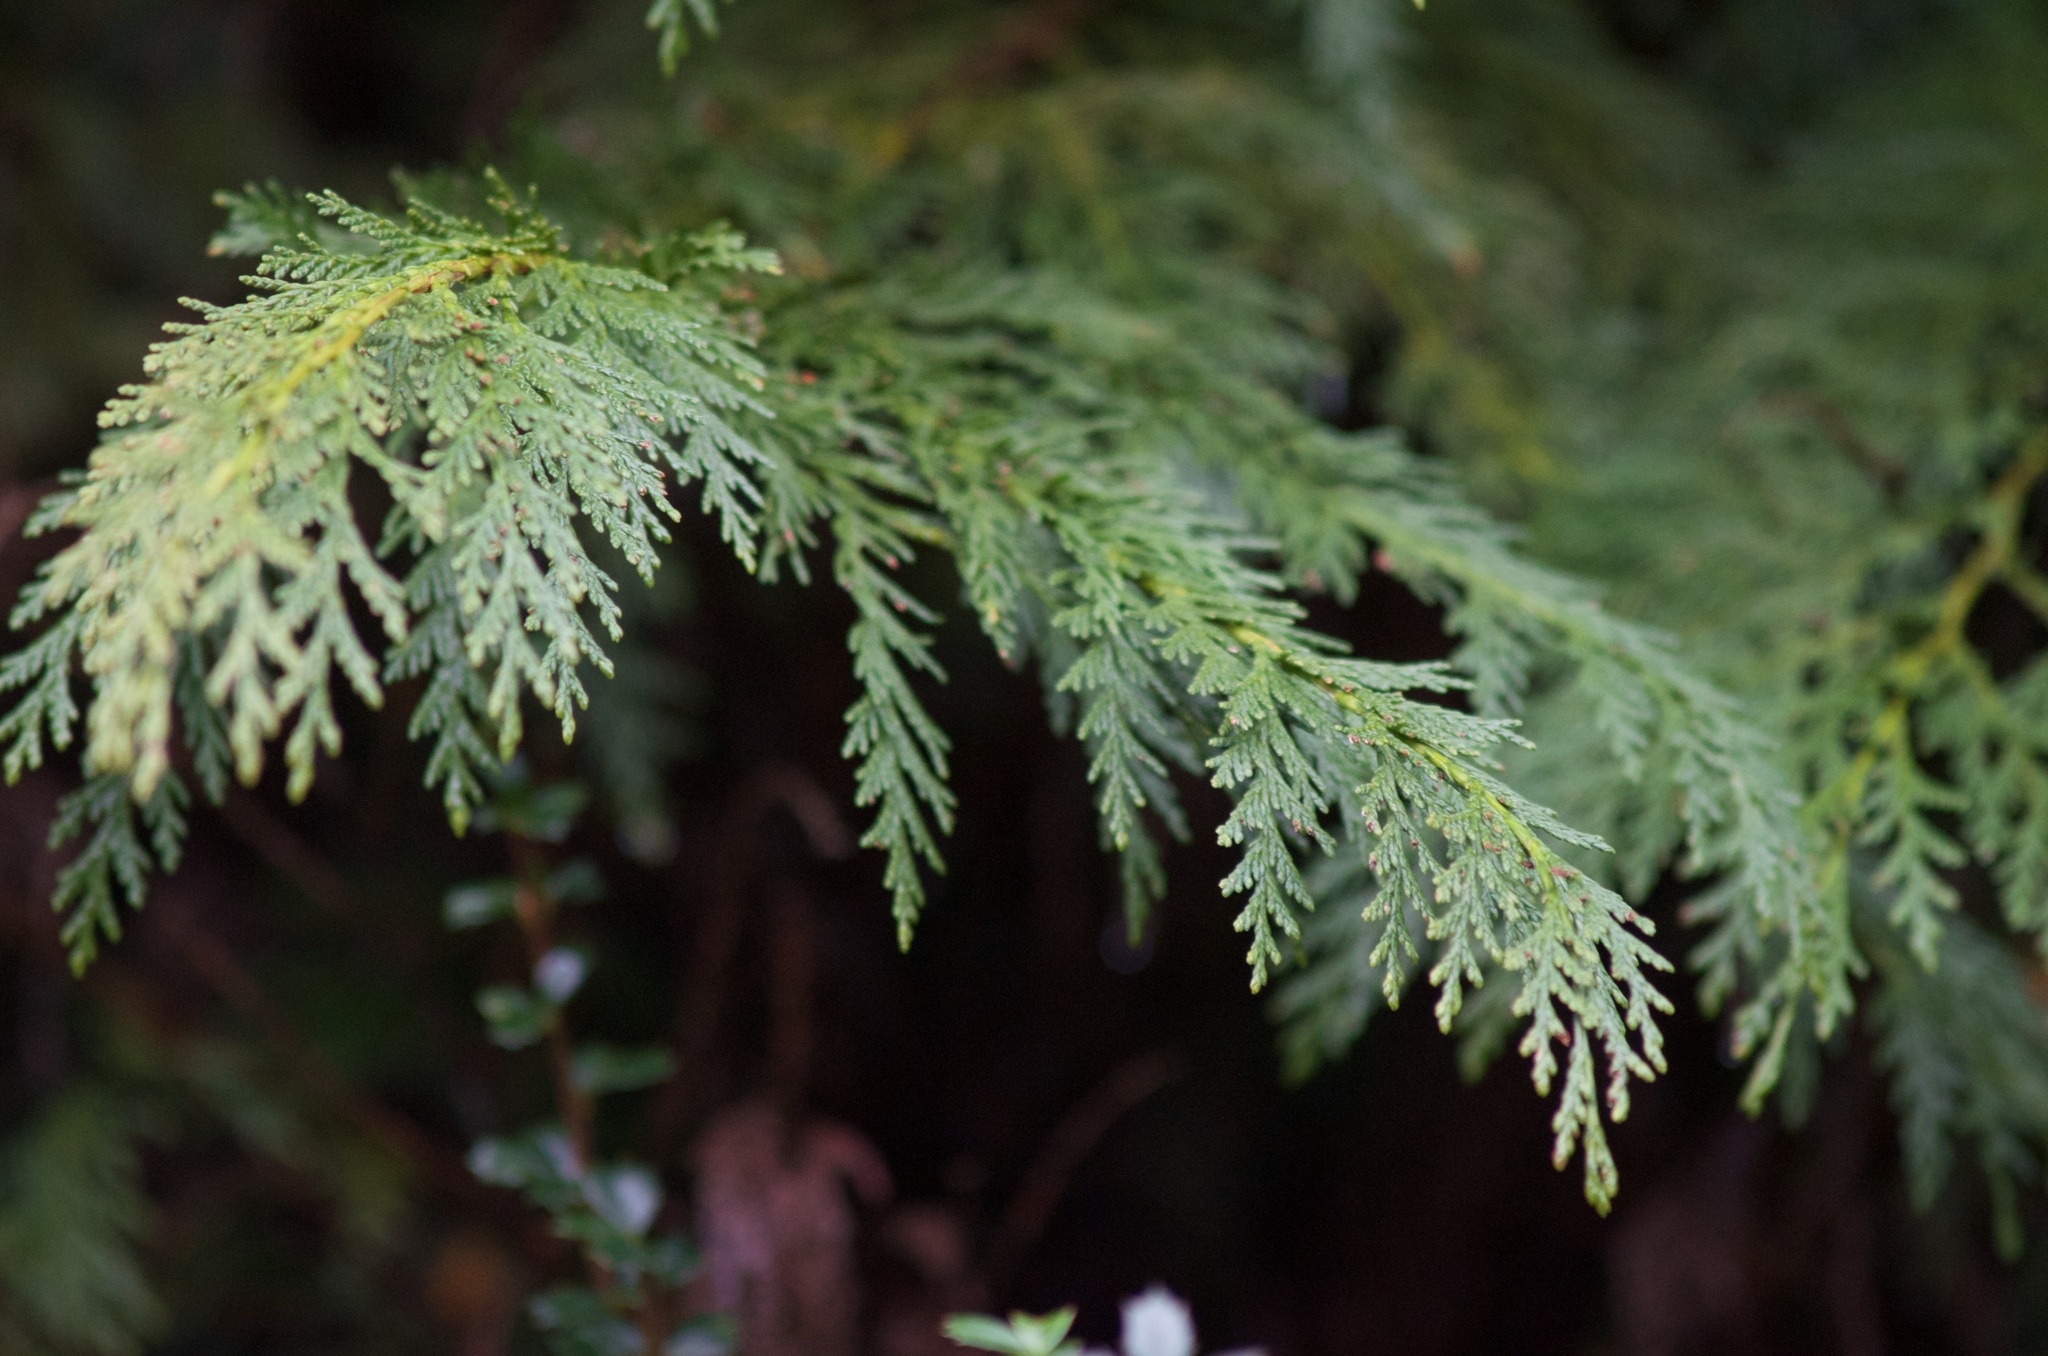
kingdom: Plantae
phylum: Tracheophyta
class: Pinopsida
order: Pinales
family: Cupressaceae
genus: Chamaecyparis
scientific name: Chamaecyparis lawsoniana
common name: Lawson's cypress
